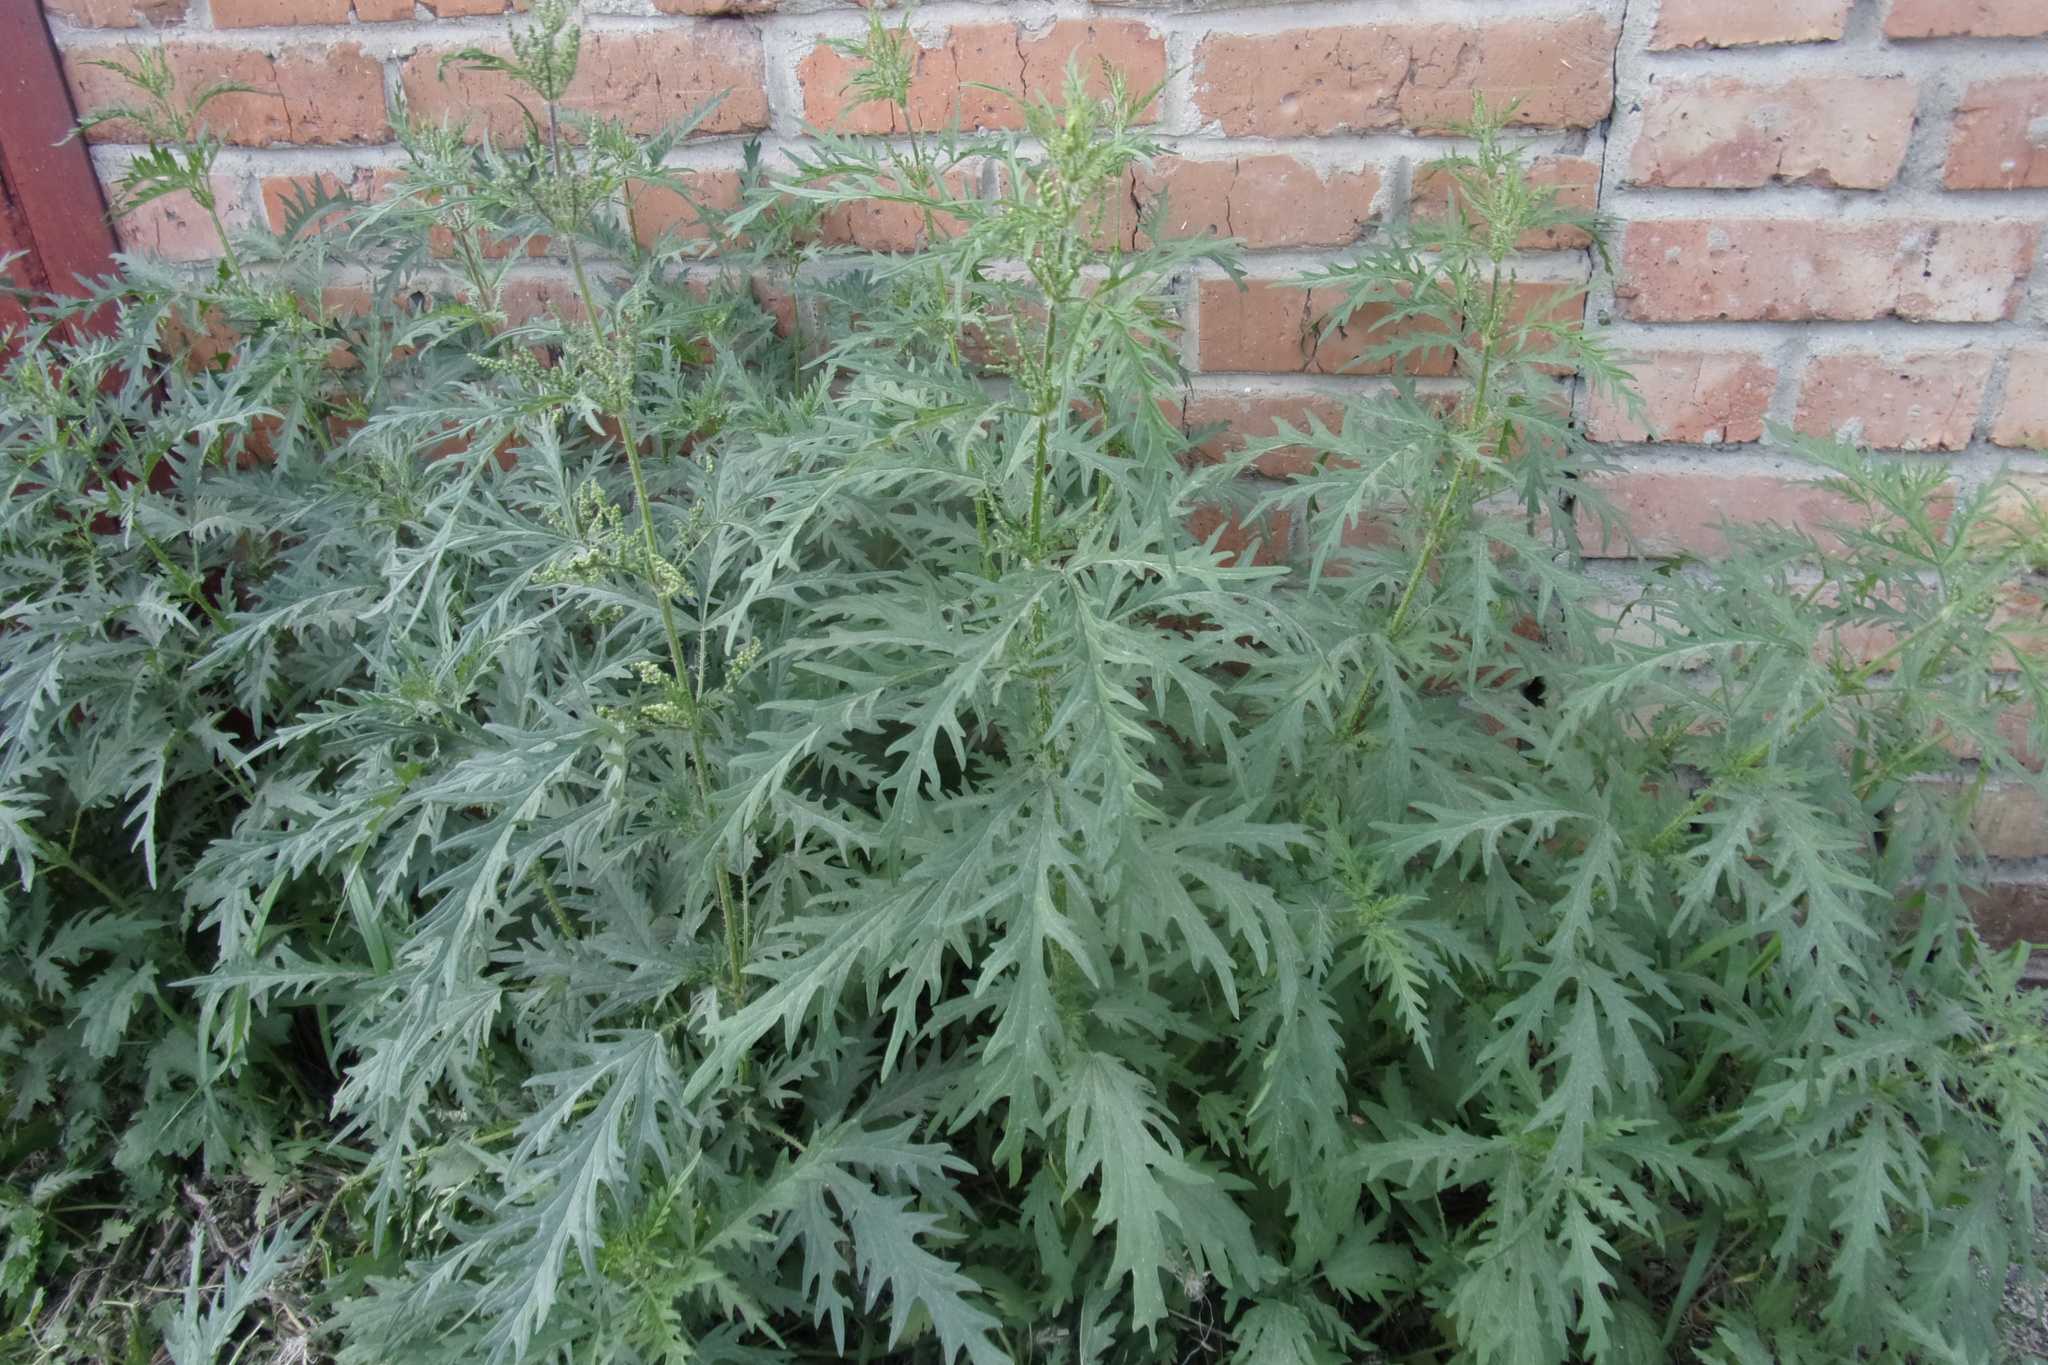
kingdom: Plantae
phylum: Tracheophyta
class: Magnoliopsida
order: Rosales
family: Urticaceae
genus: Urtica
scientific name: Urtica cannabina
